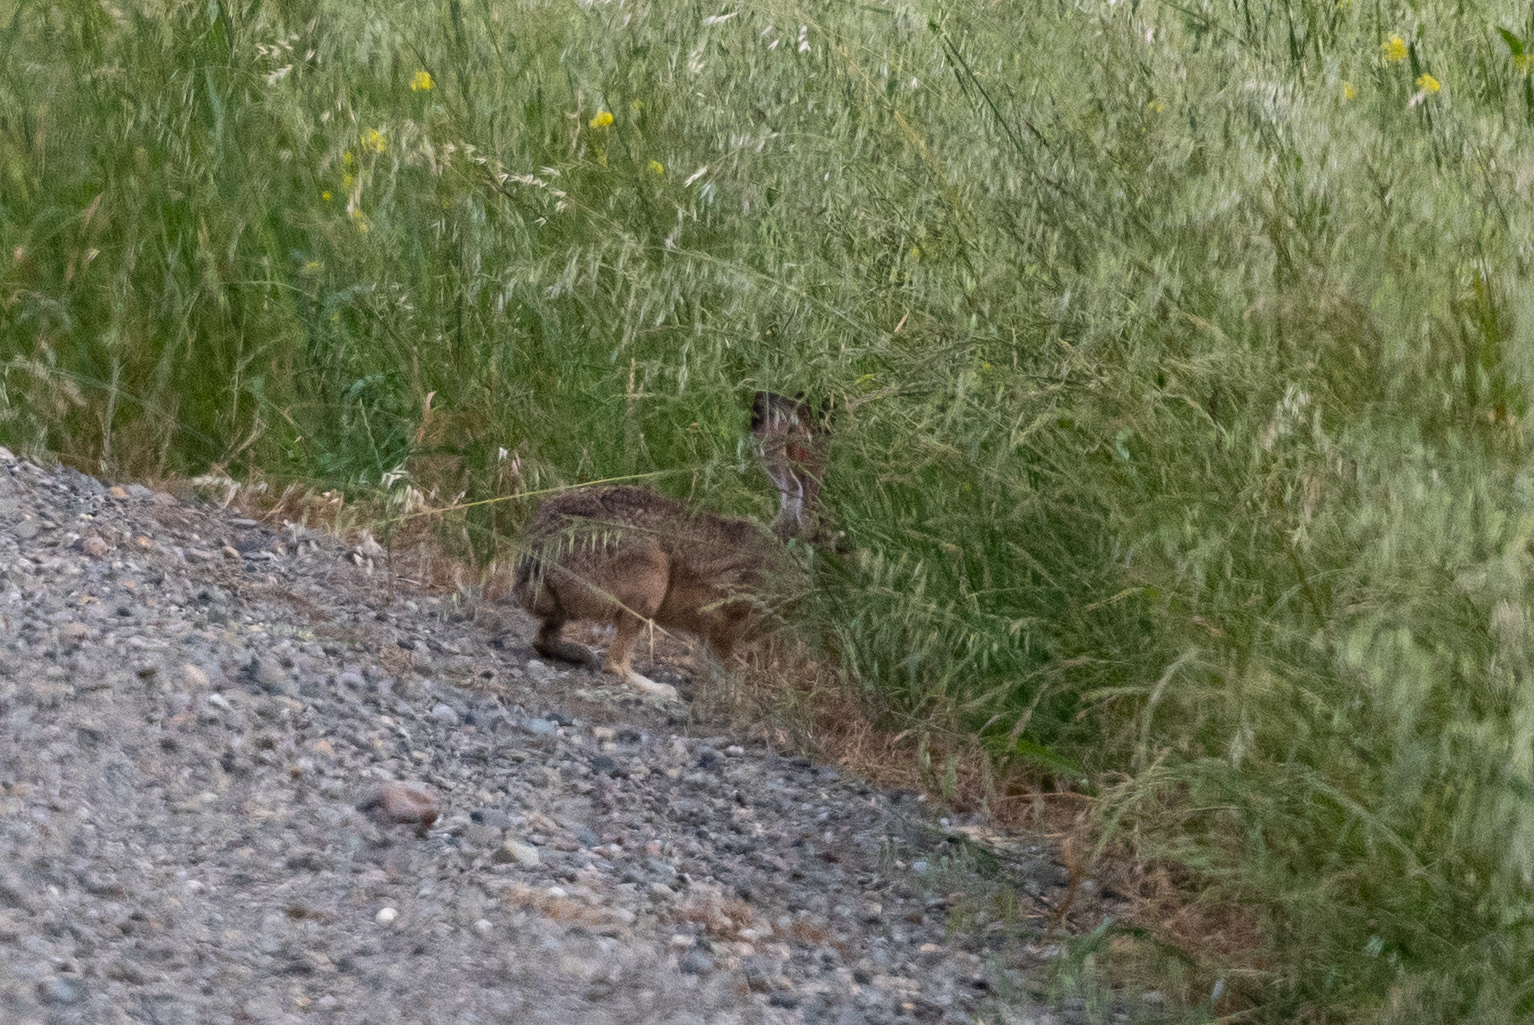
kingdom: Animalia
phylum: Chordata
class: Mammalia
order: Lagomorpha
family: Leporidae
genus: Lepus
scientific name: Lepus californicus
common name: Black-tailed jackrabbit
